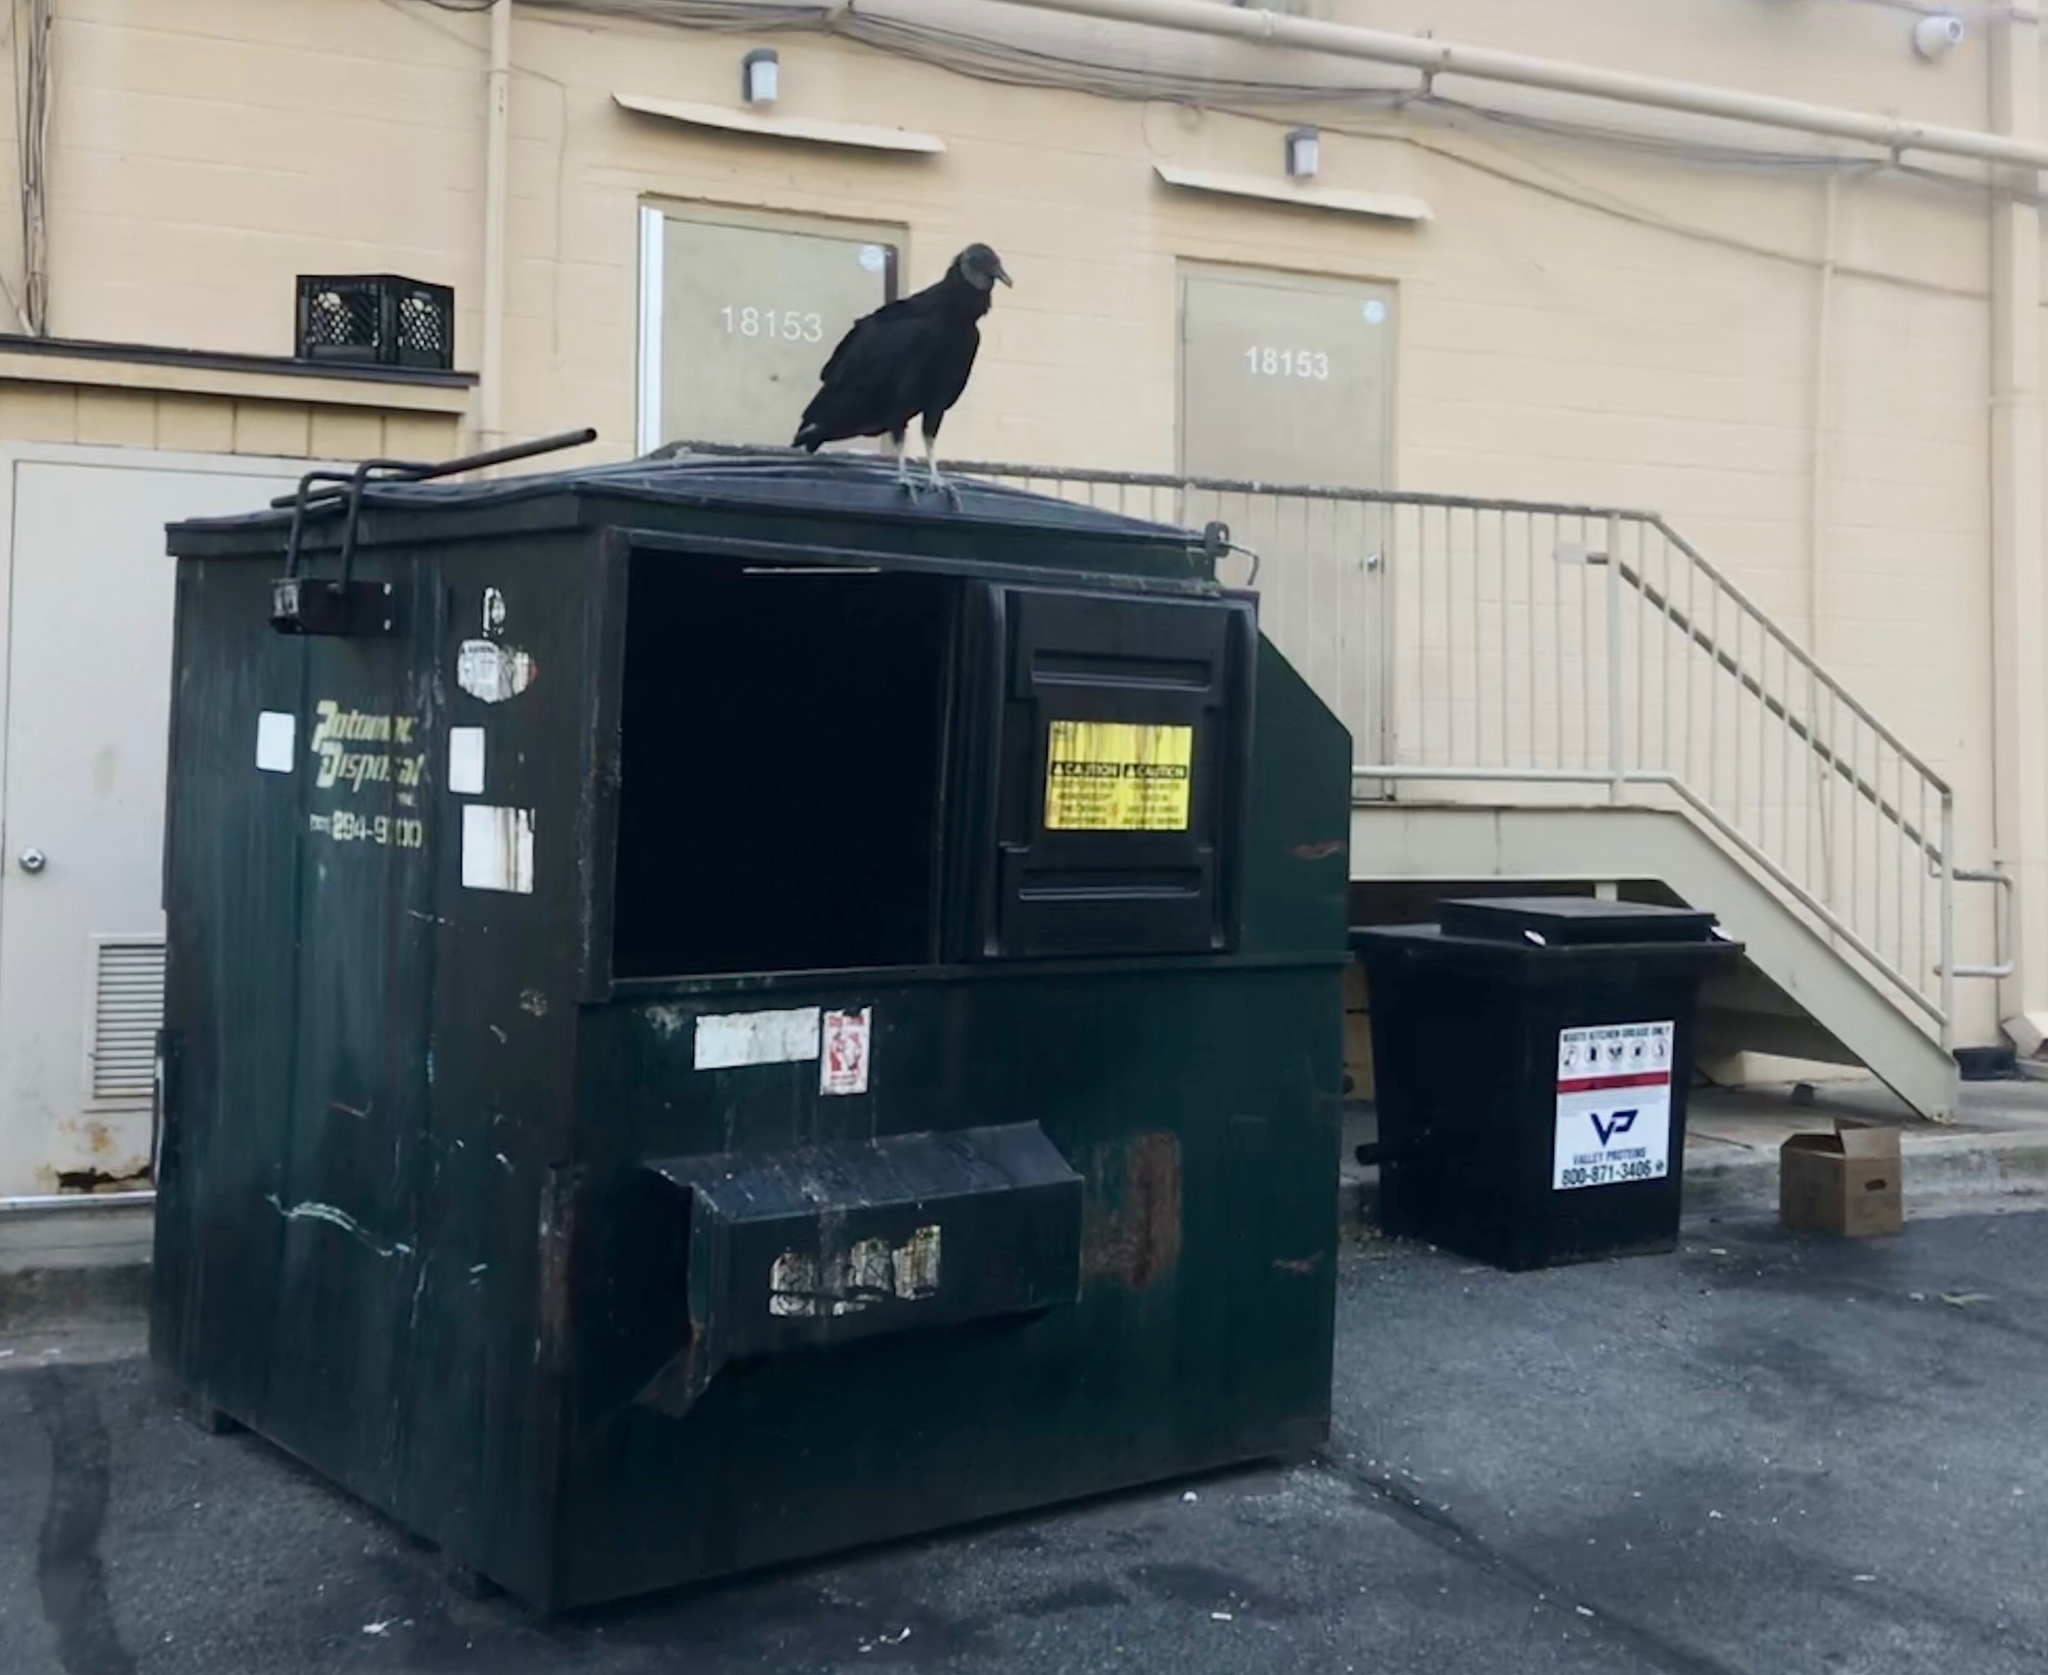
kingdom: Animalia
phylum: Chordata
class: Aves
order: Accipitriformes
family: Cathartidae
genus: Coragyps
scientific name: Coragyps atratus
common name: Black vulture
